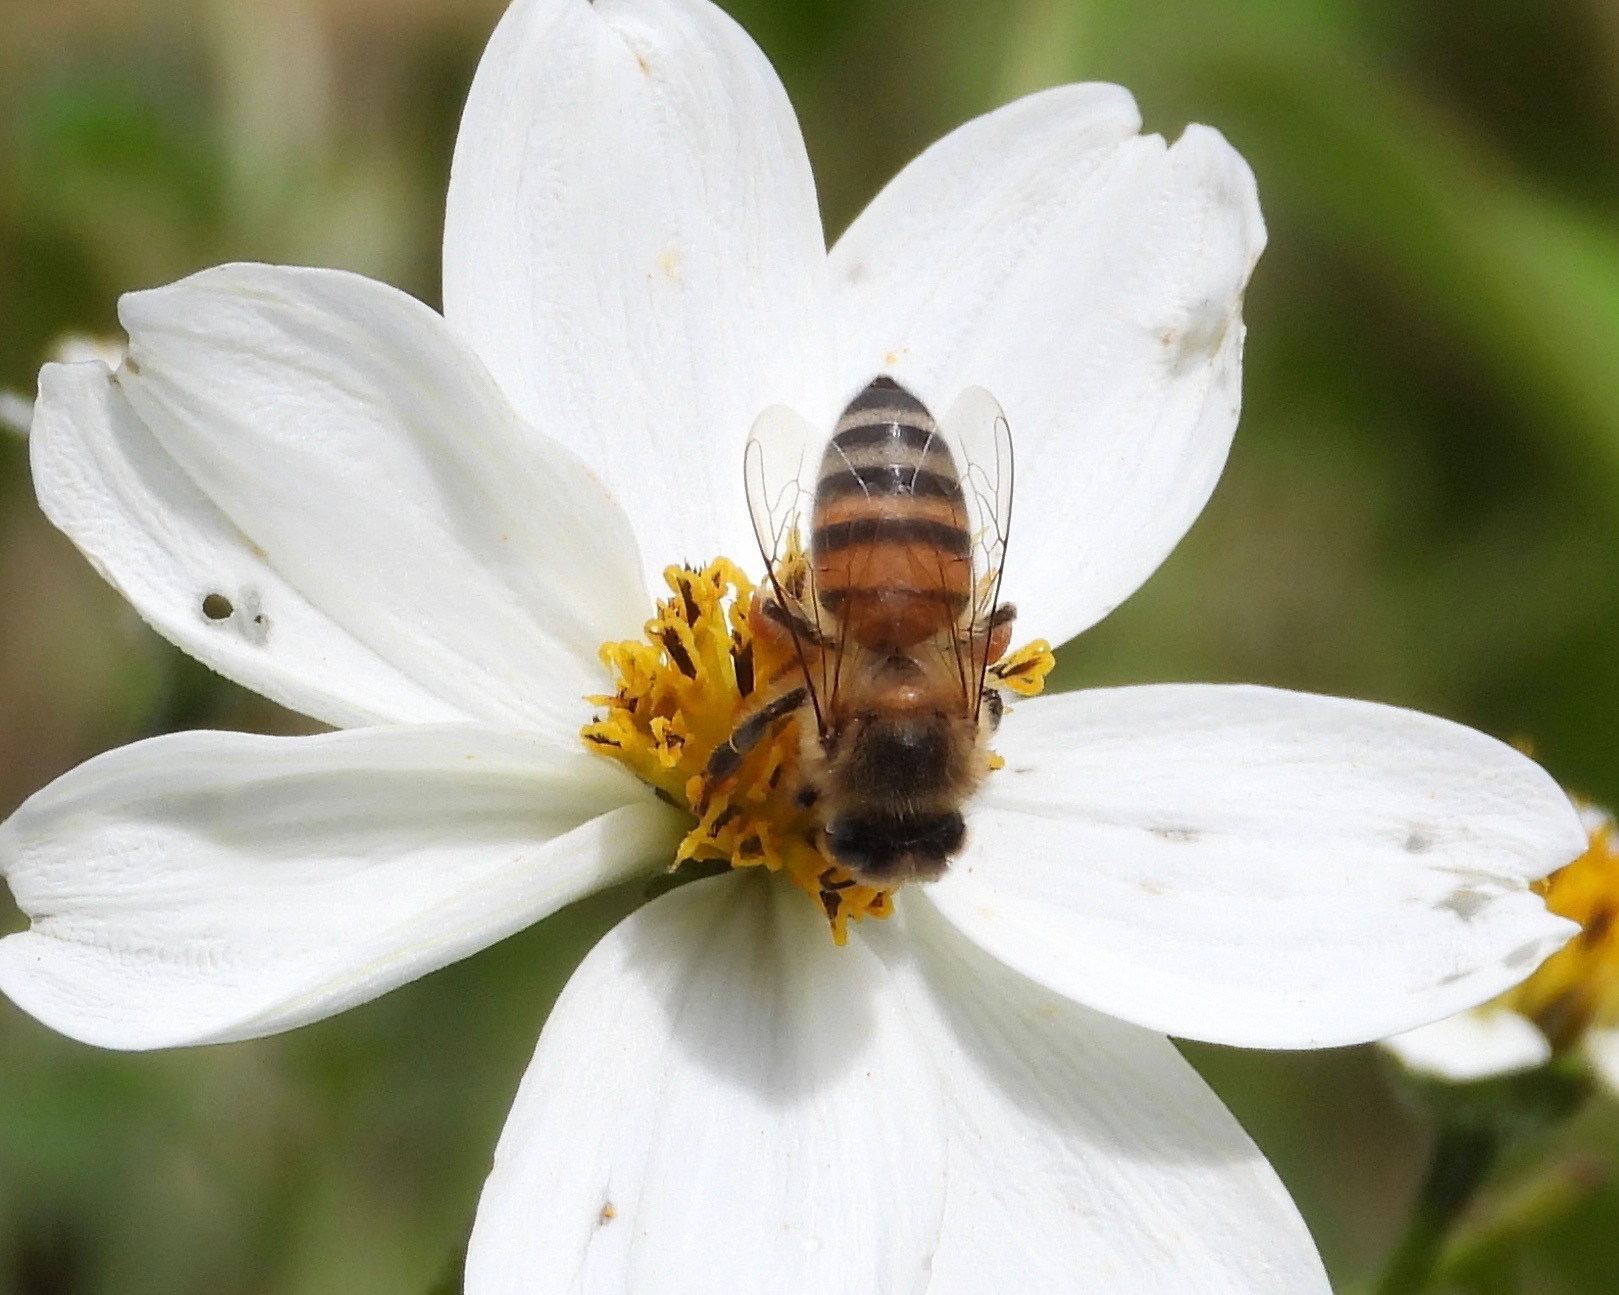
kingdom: Animalia
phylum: Arthropoda
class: Insecta
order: Hymenoptera
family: Apidae
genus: Apis
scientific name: Apis mellifera
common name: Honey bee
